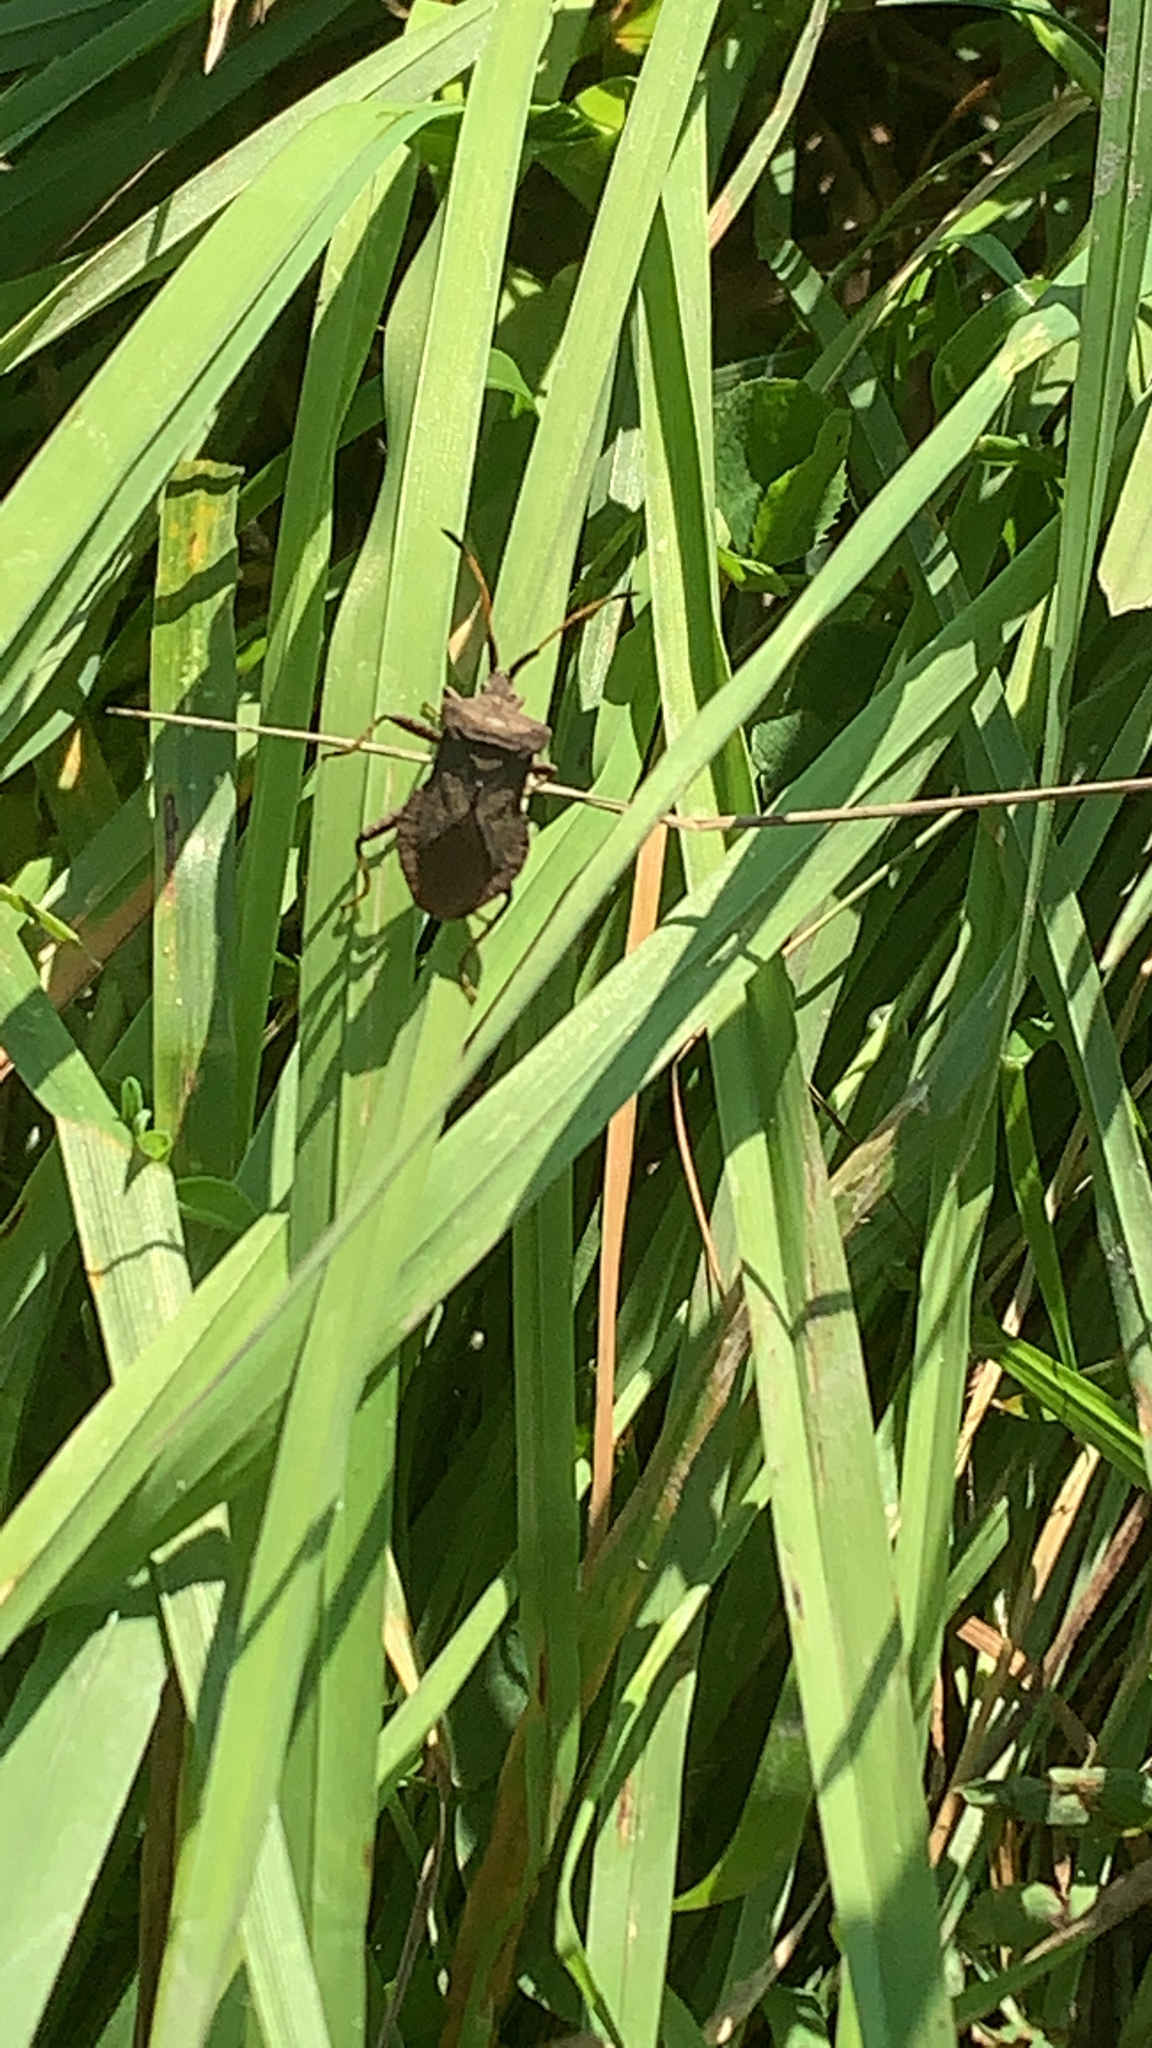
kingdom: Animalia
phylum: Arthropoda
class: Insecta
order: Hemiptera
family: Coreidae
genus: Coreus
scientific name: Coreus marginatus
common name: Dock bug
